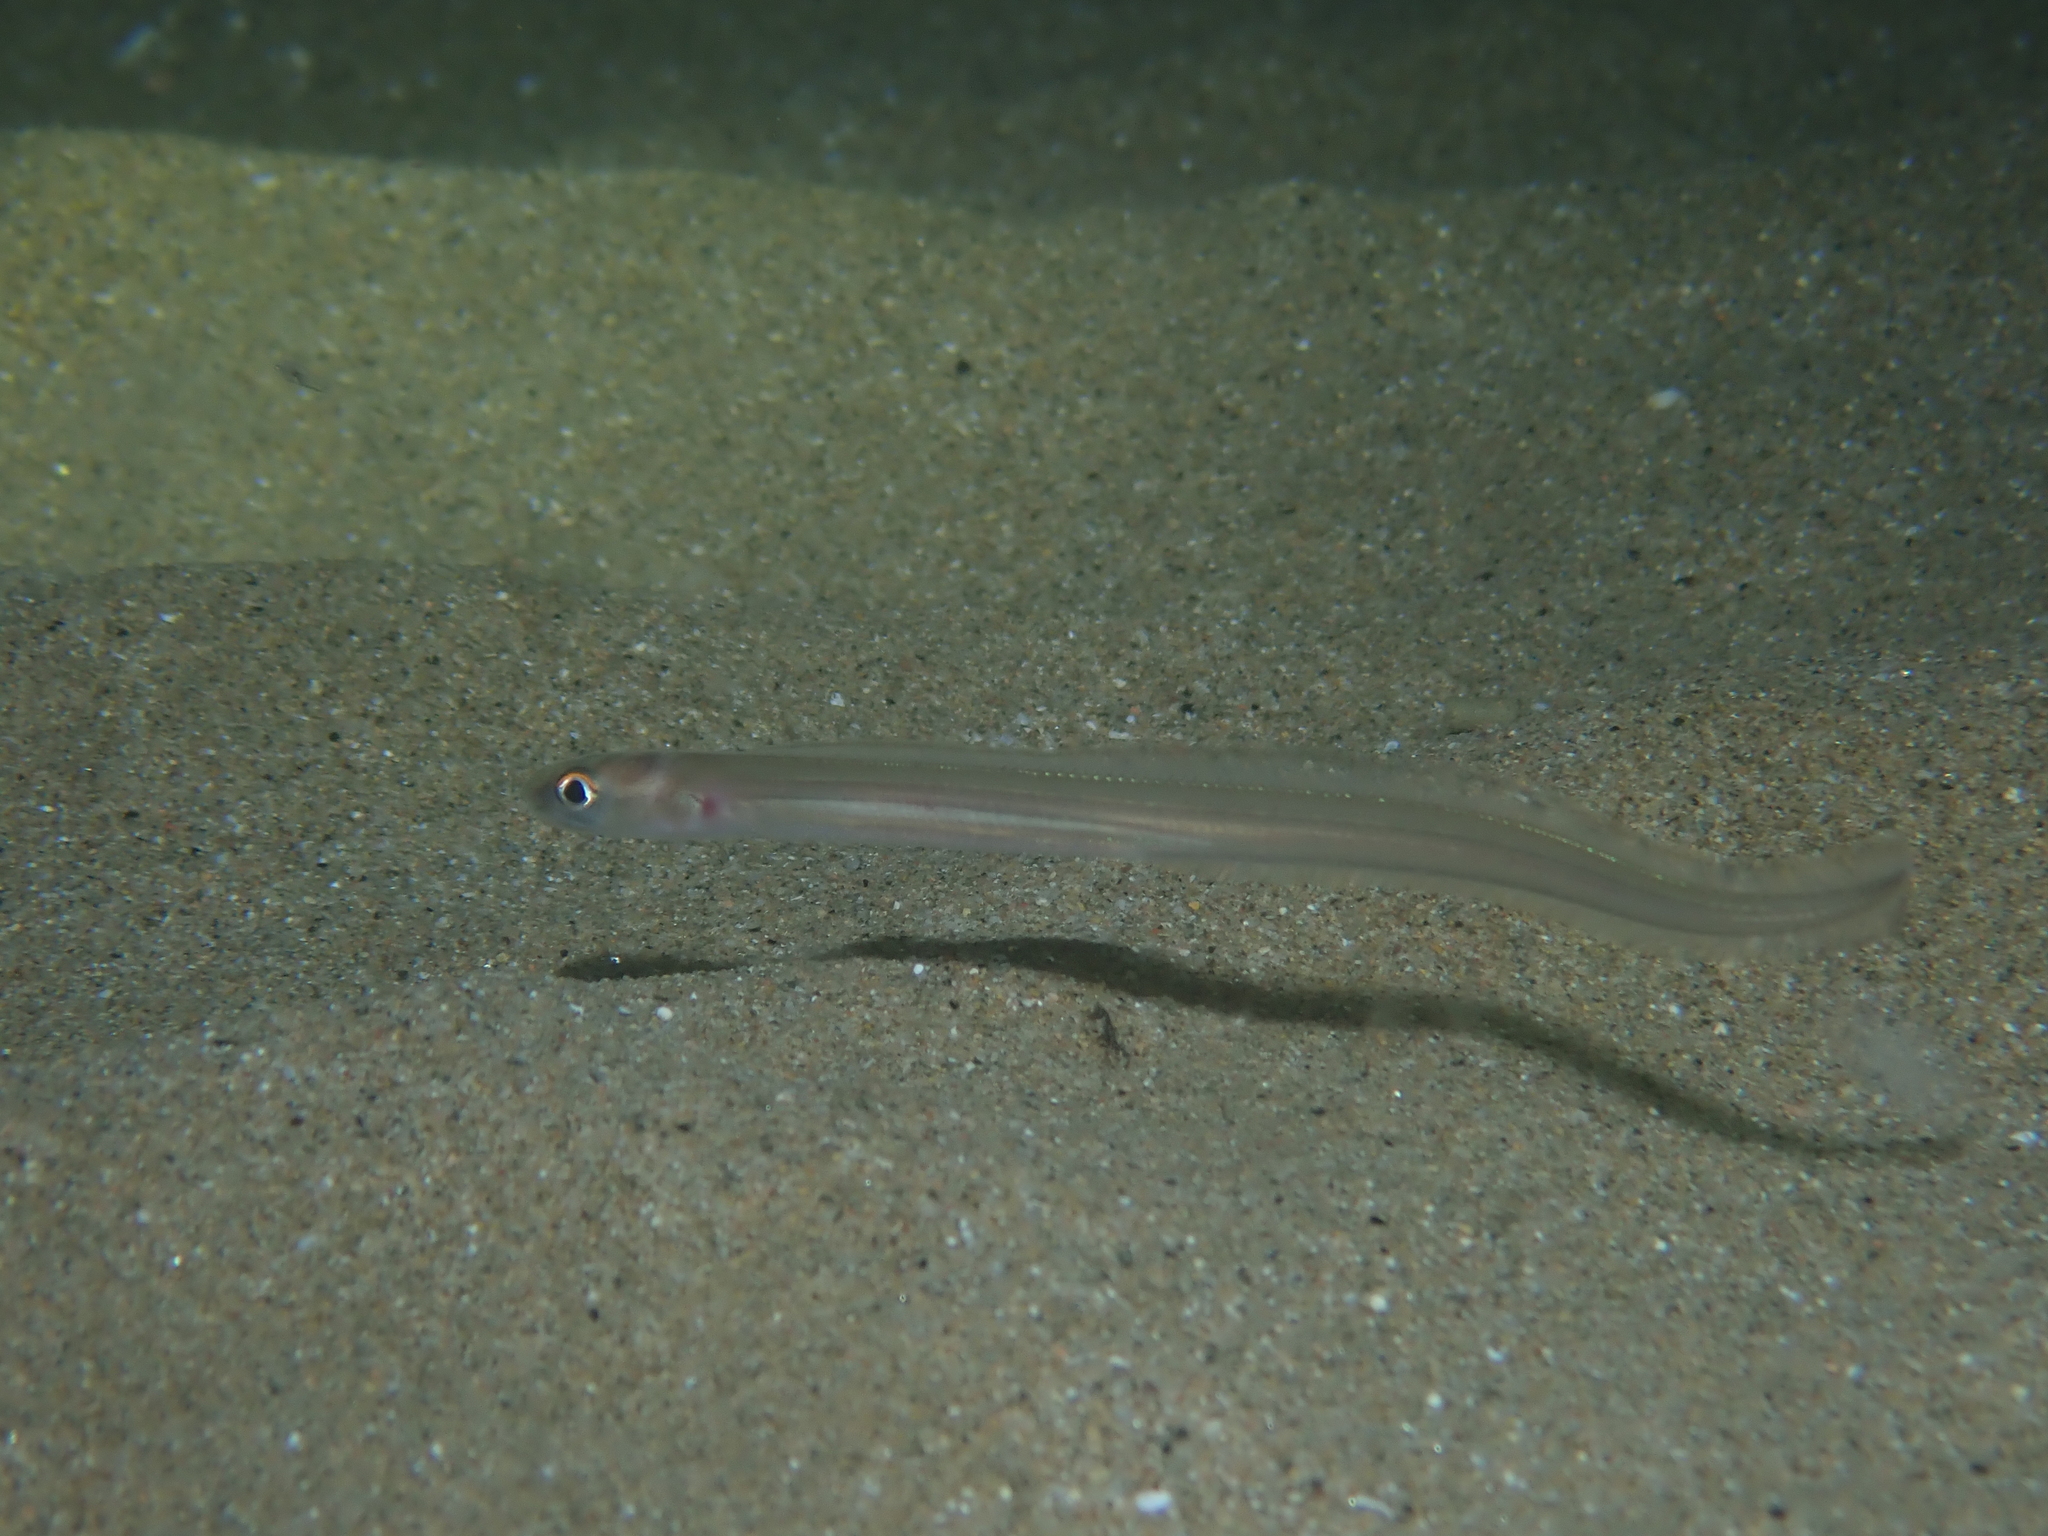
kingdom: Animalia
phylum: Chordata
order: Anguilliformes
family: Congridae
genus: Ariosoma
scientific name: Ariosoma balearicum
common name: Bandtooth conger
